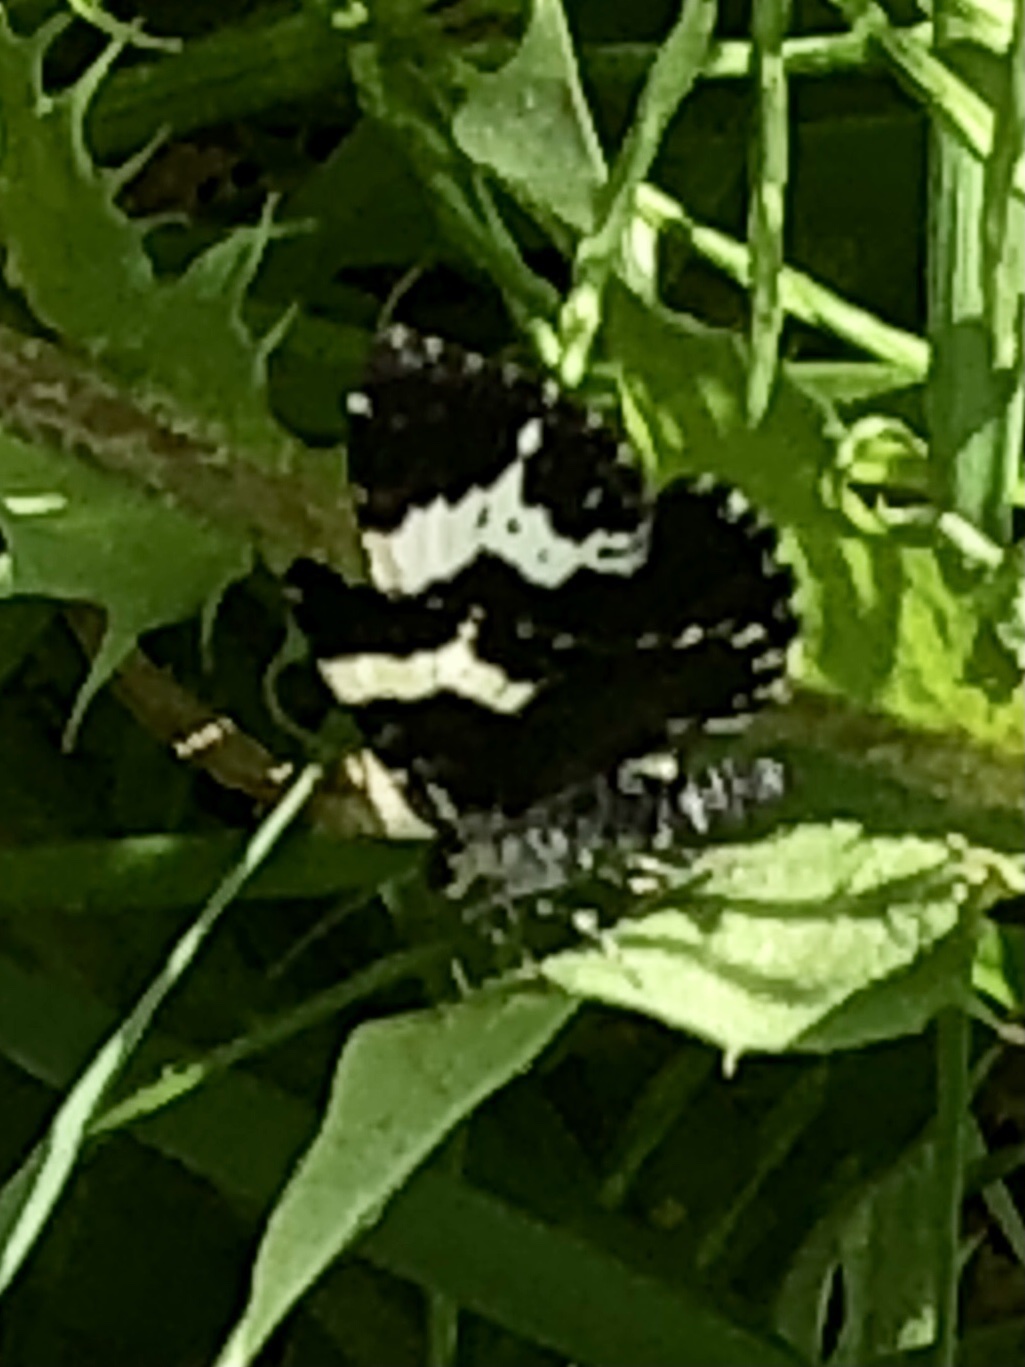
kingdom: Animalia
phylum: Arthropoda
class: Insecta
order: Lepidoptera
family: Geometridae
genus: Rheumaptera
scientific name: Rheumaptera
